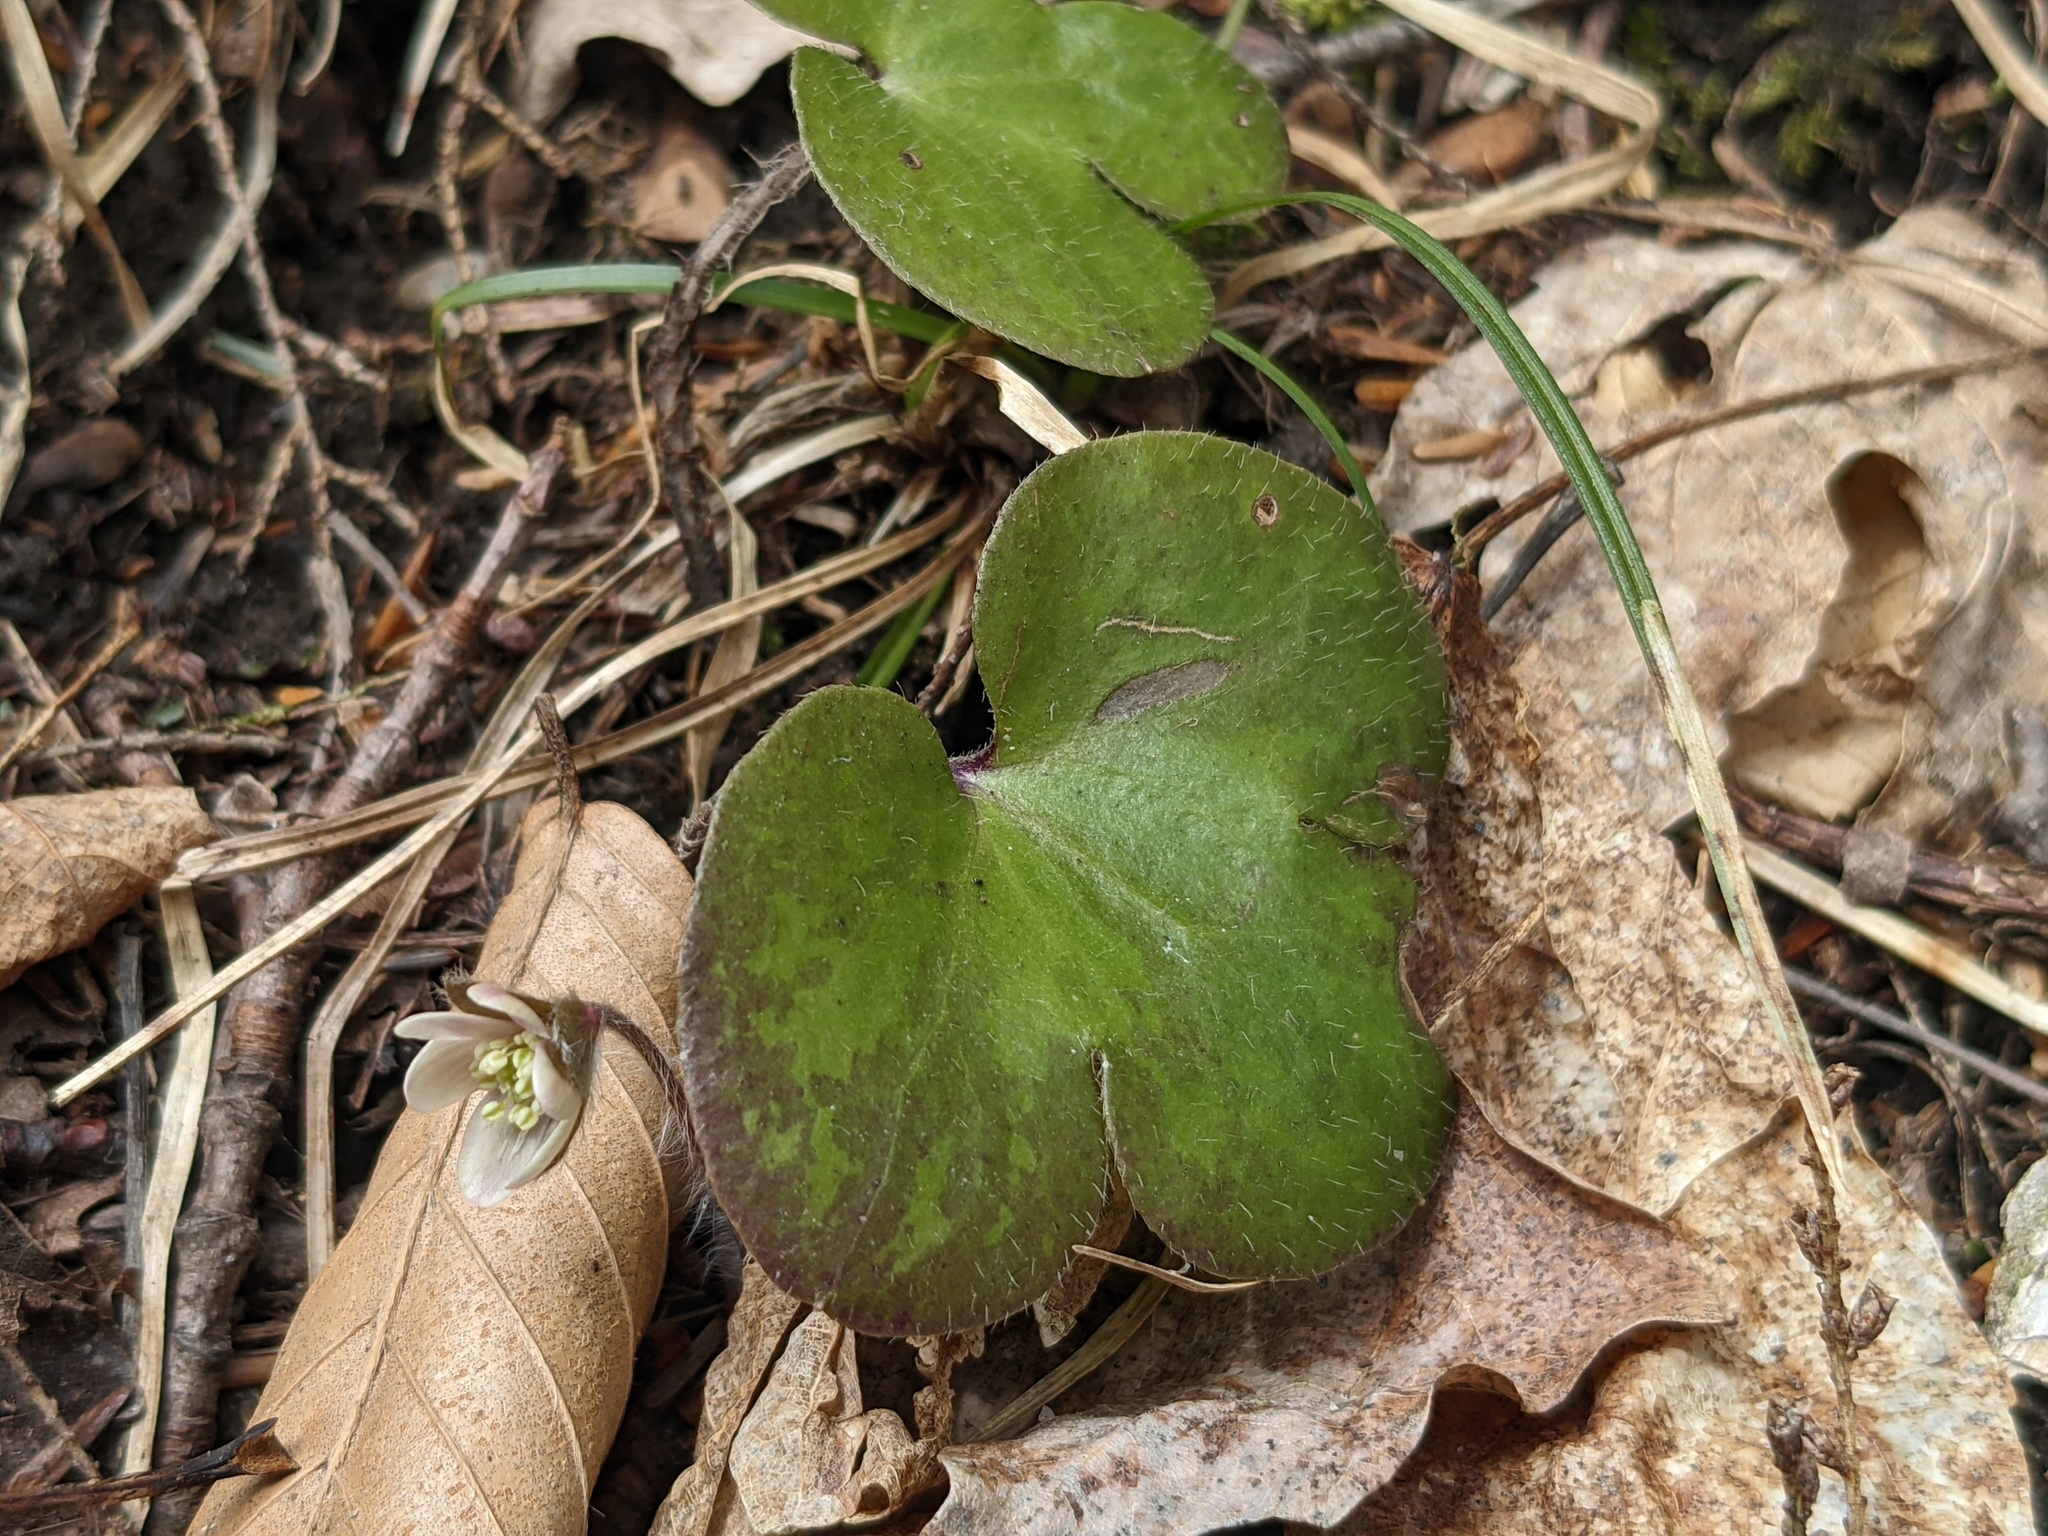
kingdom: Plantae
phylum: Tracheophyta
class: Magnoliopsida
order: Ranunculales
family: Ranunculaceae
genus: Hepatica
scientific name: Hepatica americana
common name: American hepatica
